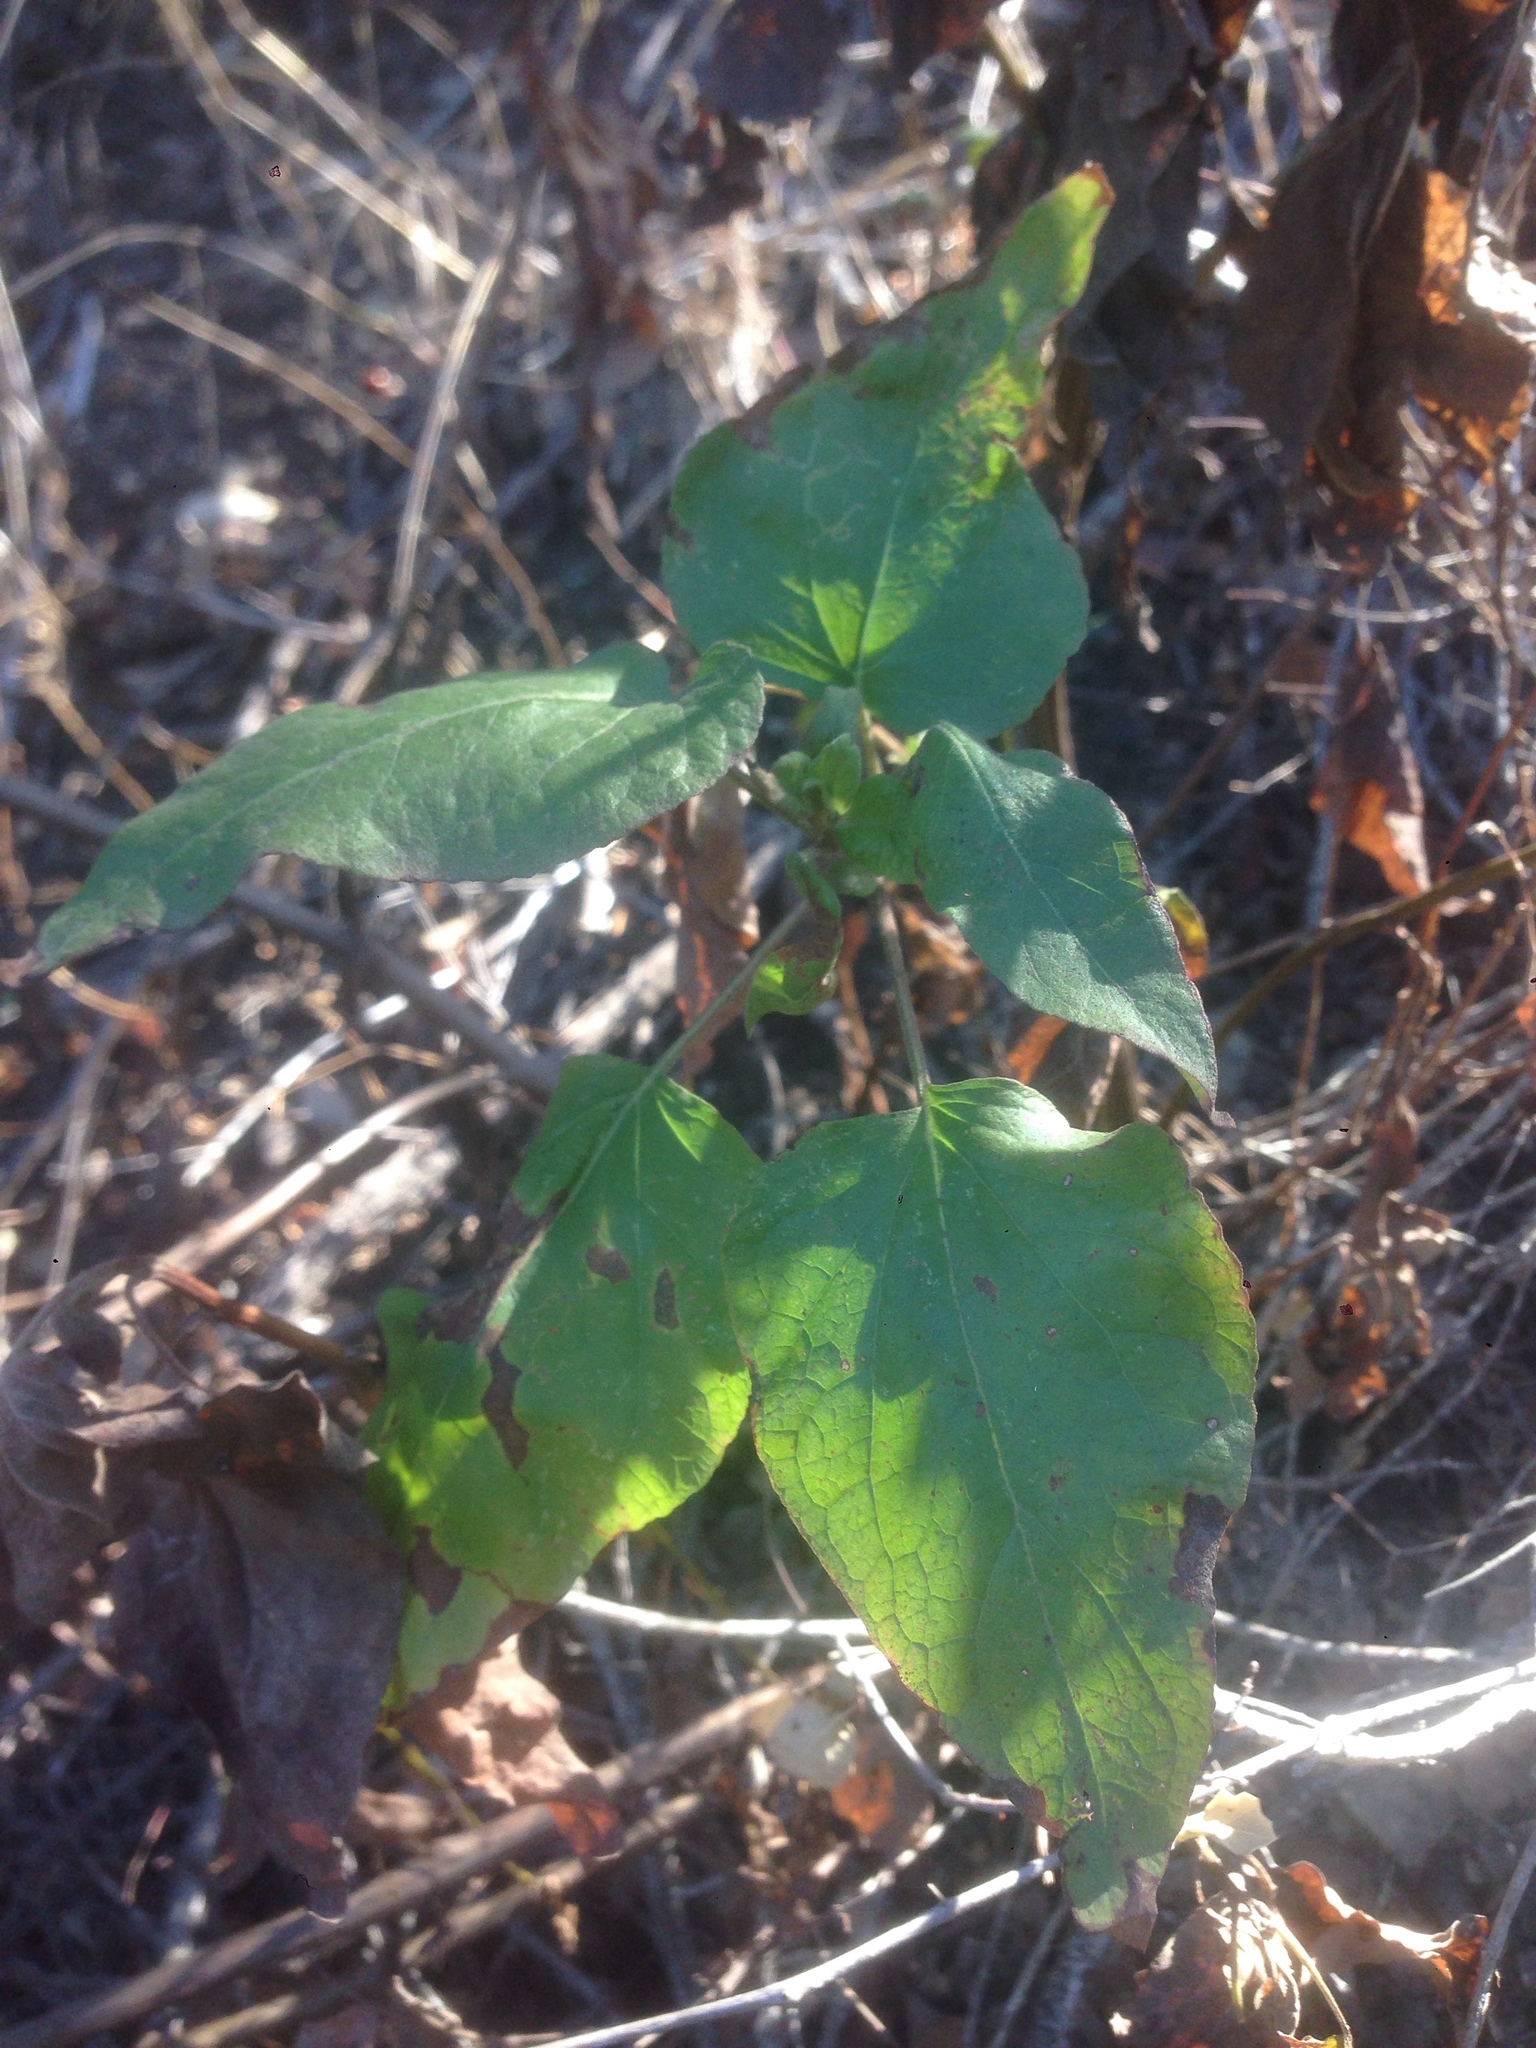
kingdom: Plantae
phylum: Tracheophyta
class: Magnoliopsida
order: Asterales
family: Asteraceae
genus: Venegasia
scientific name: Venegasia carpesioides
